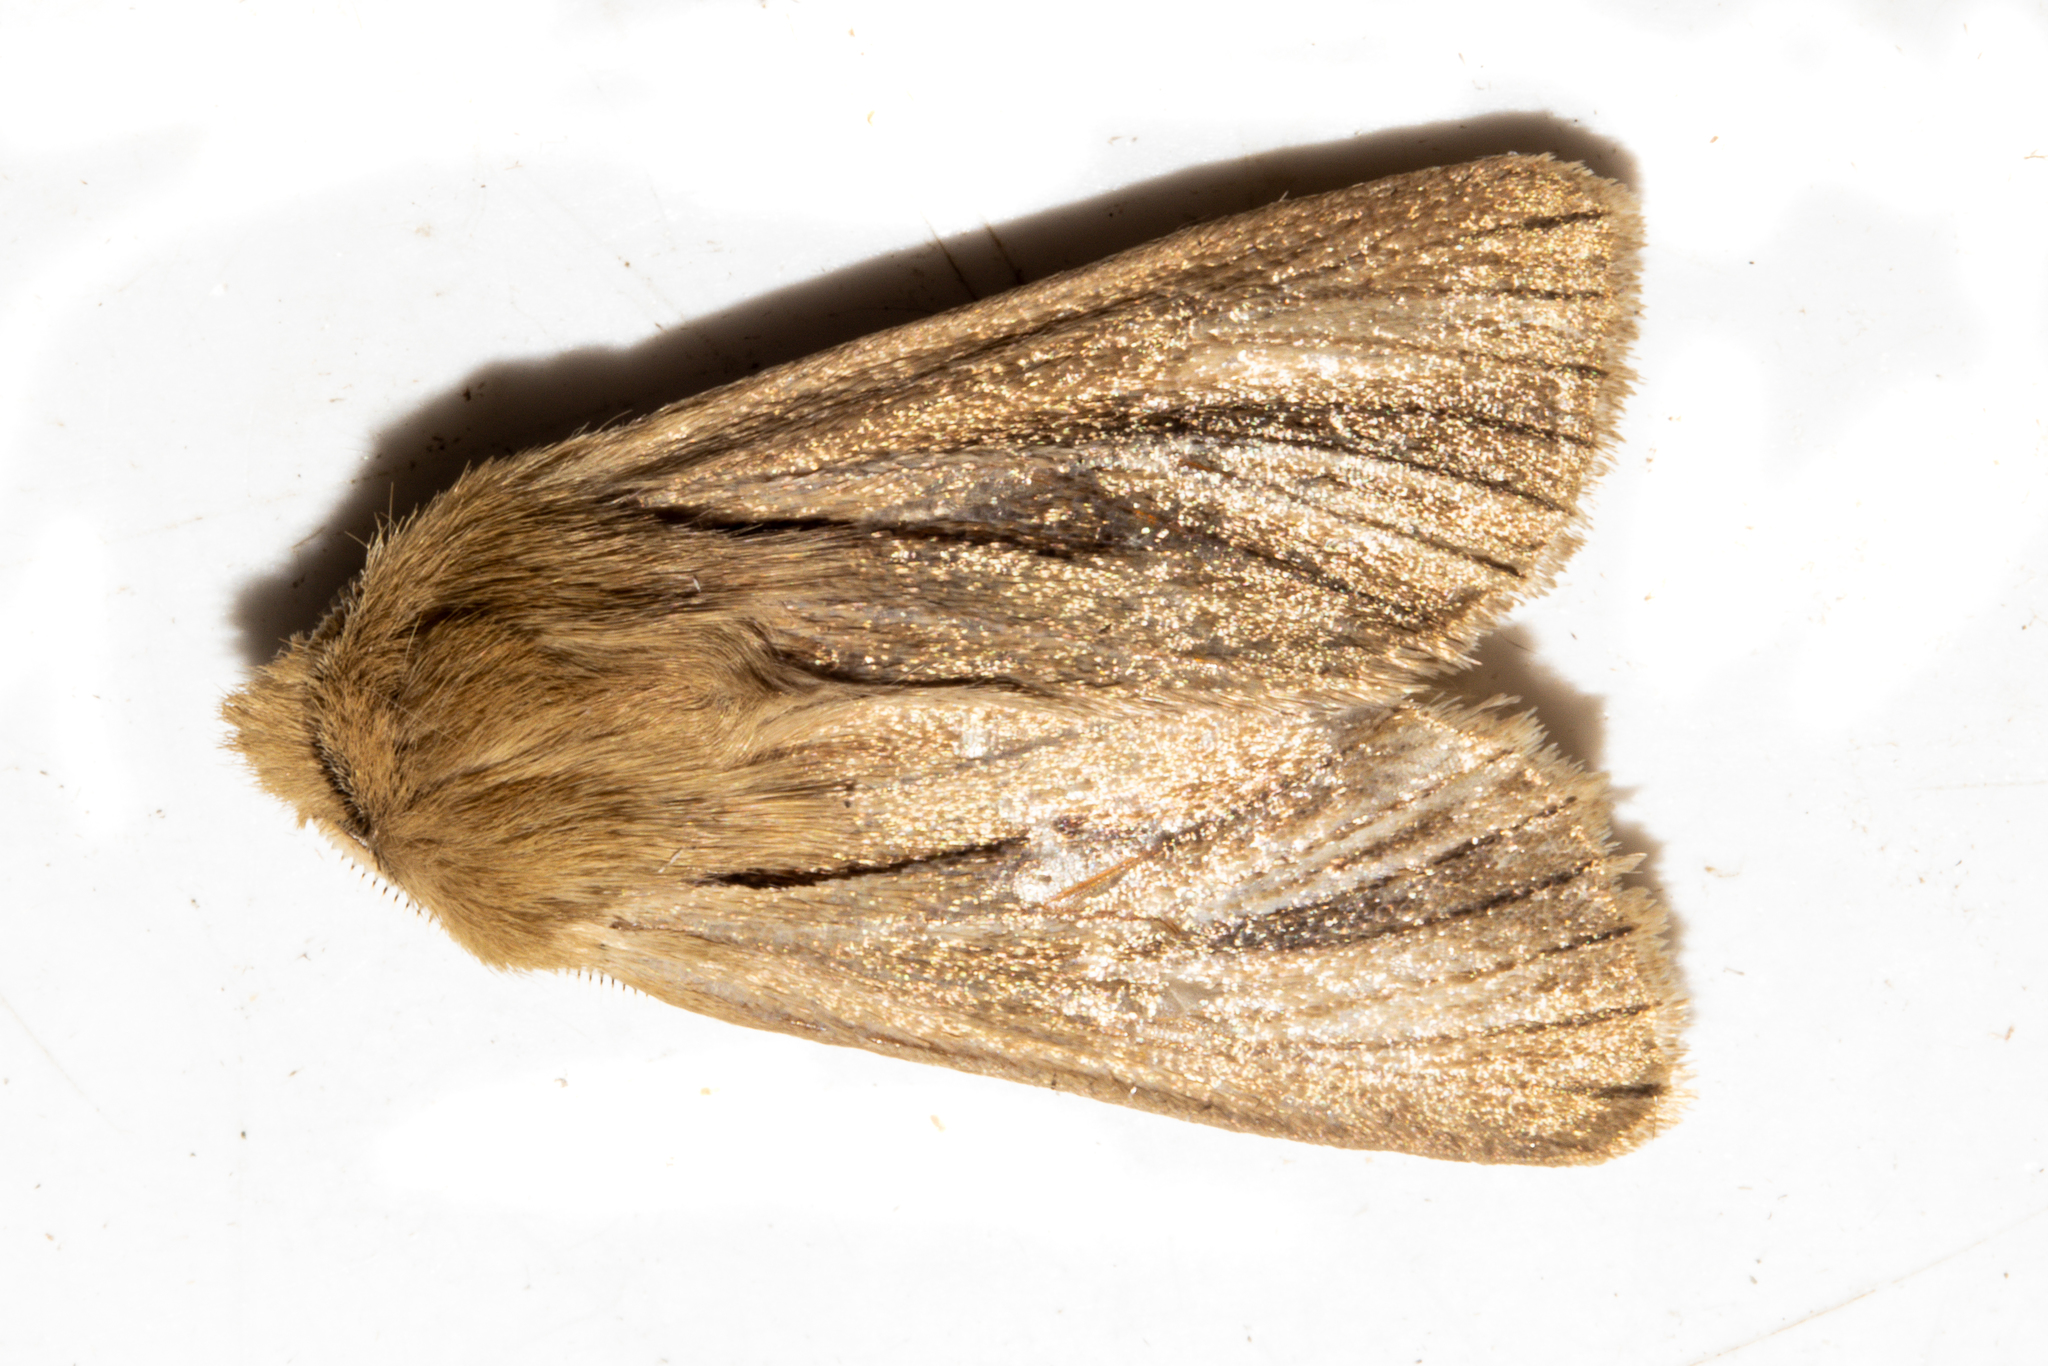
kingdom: Animalia
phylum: Arthropoda
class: Insecta
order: Lepidoptera
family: Noctuidae
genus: Ichneutica
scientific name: Ichneutica
